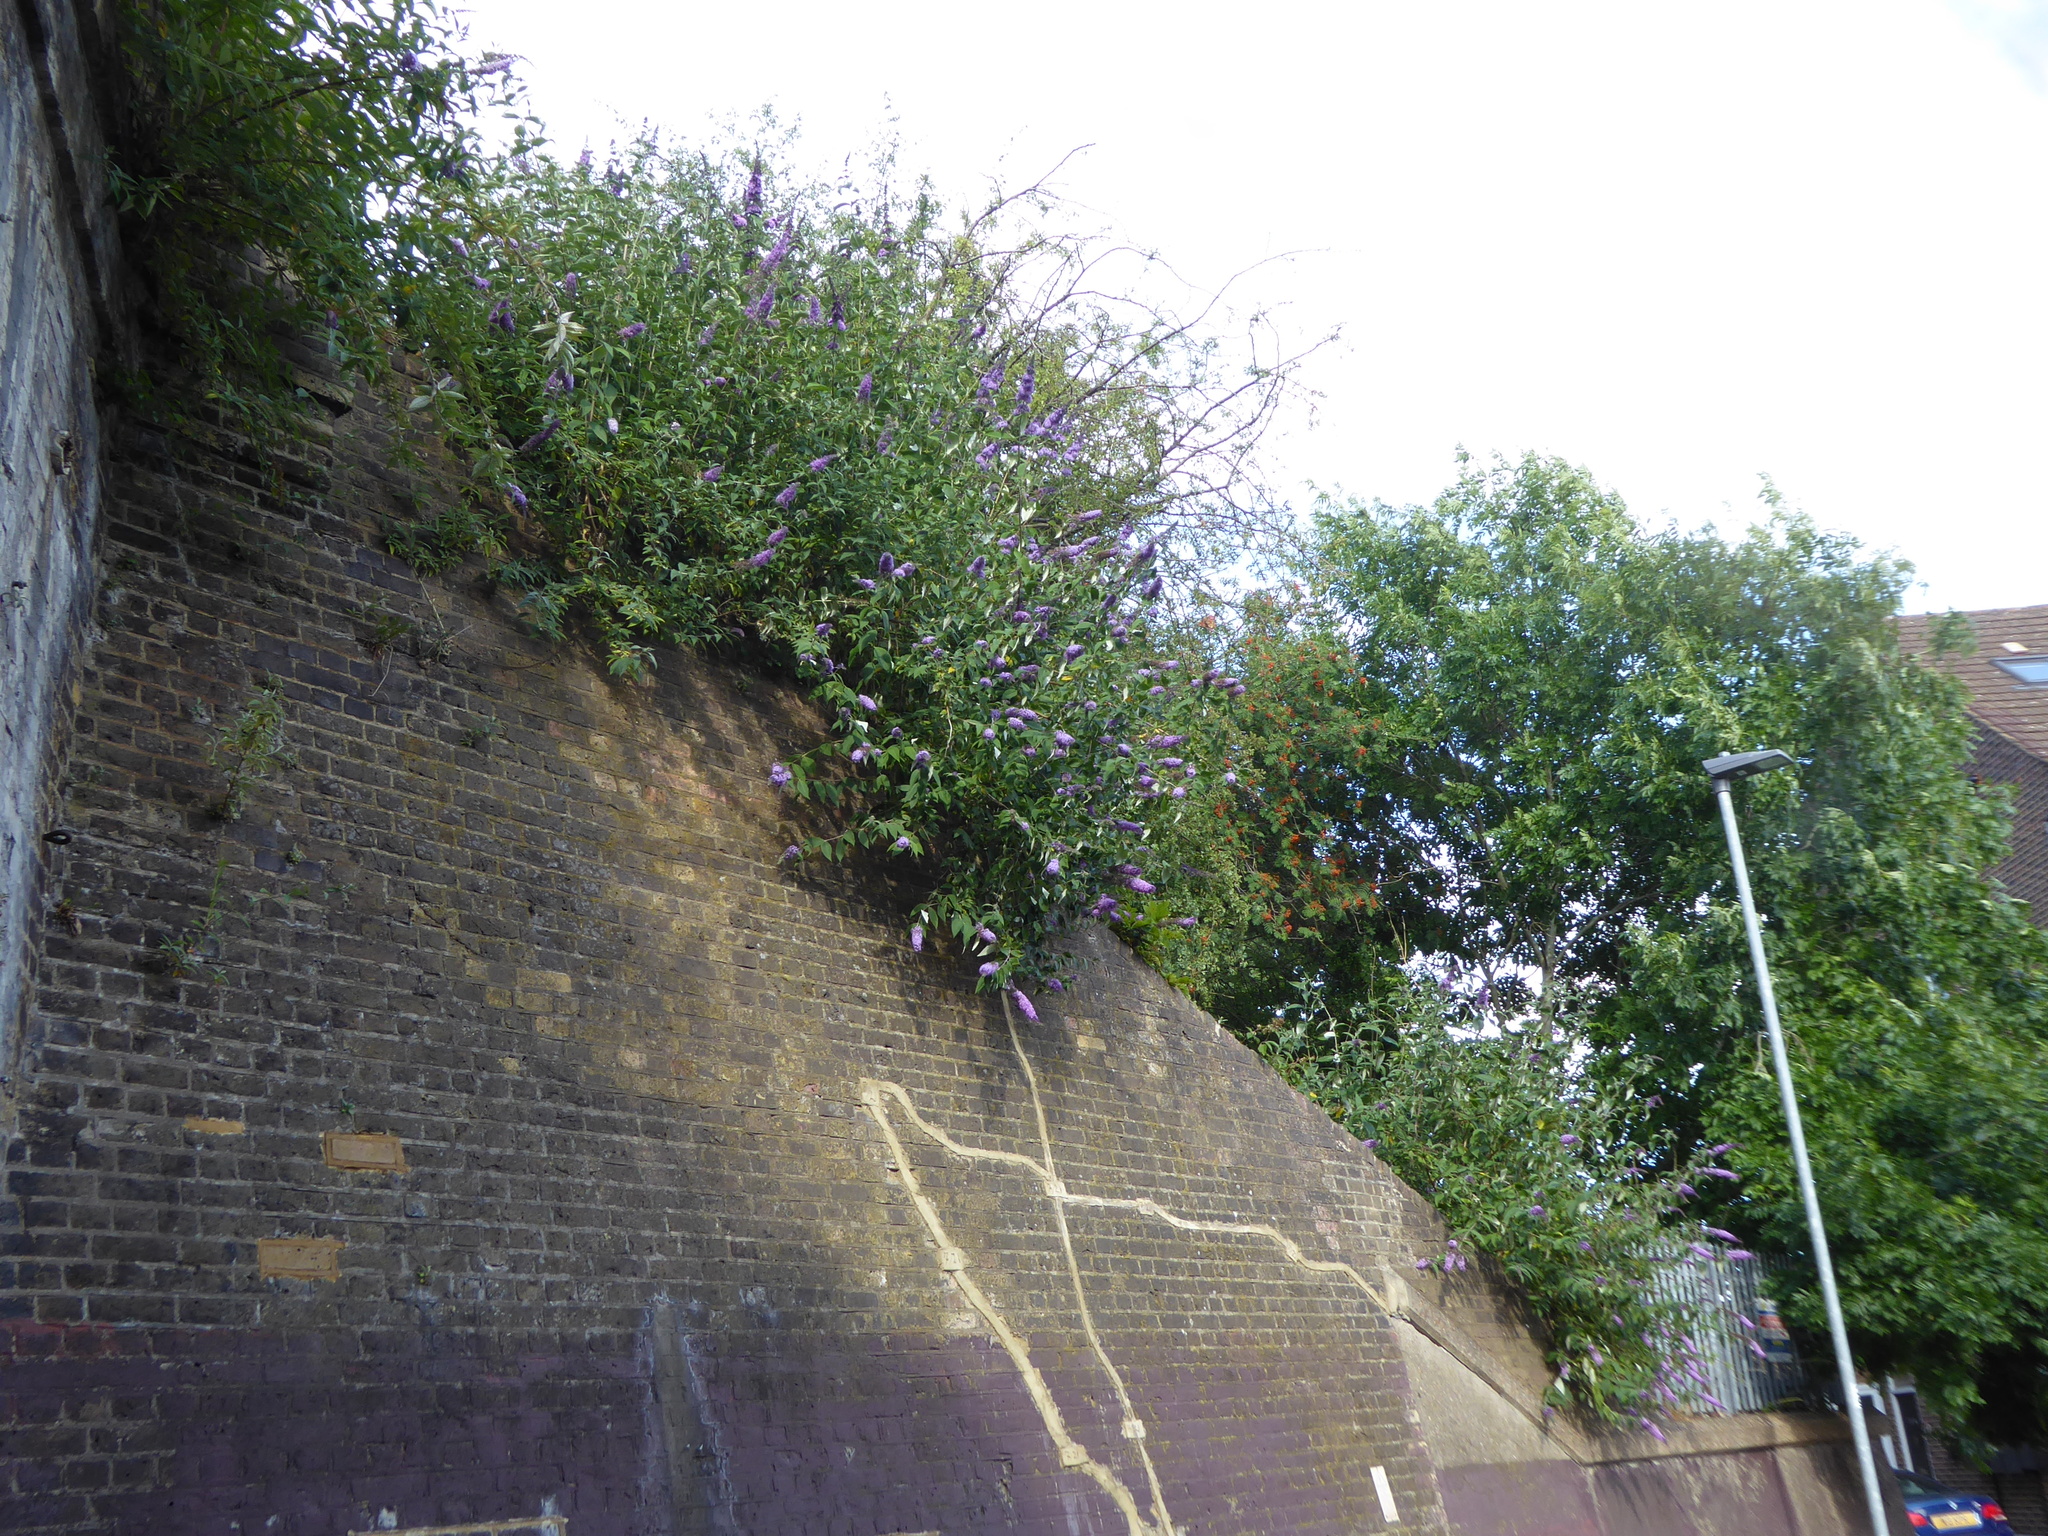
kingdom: Plantae
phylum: Tracheophyta
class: Magnoliopsida
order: Lamiales
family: Scrophulariaceae
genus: Buddleja
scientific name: Buddleja davidii
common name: Butterfly-bush
